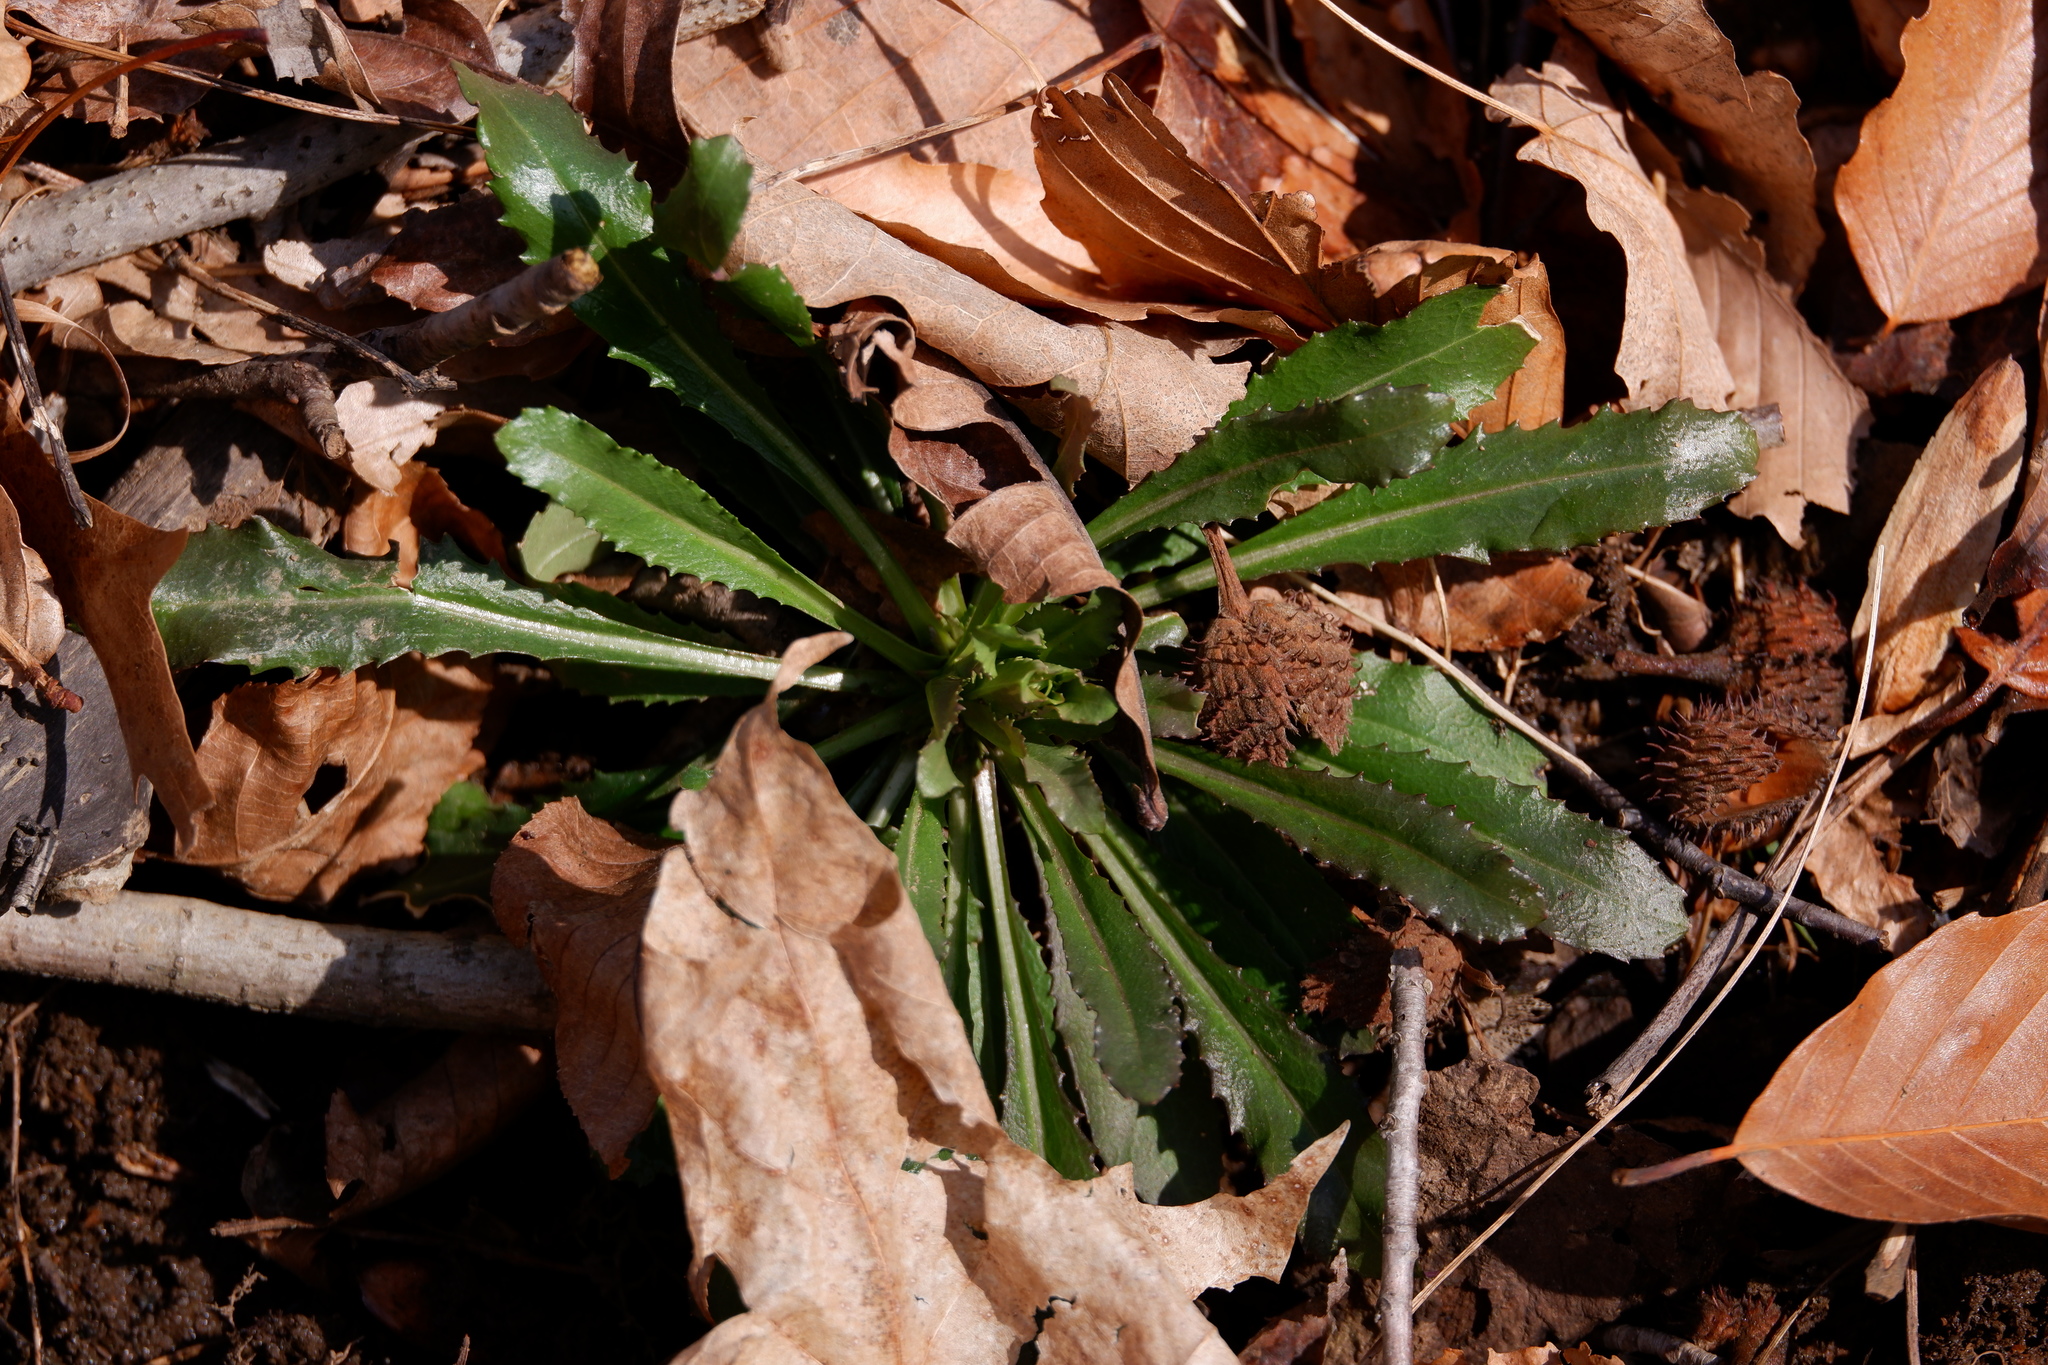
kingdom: Plantae
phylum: Tracheophyta
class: Magnoliopsida
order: Brassicales
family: Brassicaceae
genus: Borodinia
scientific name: Borodinia laevigata
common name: Smooth rockcress
